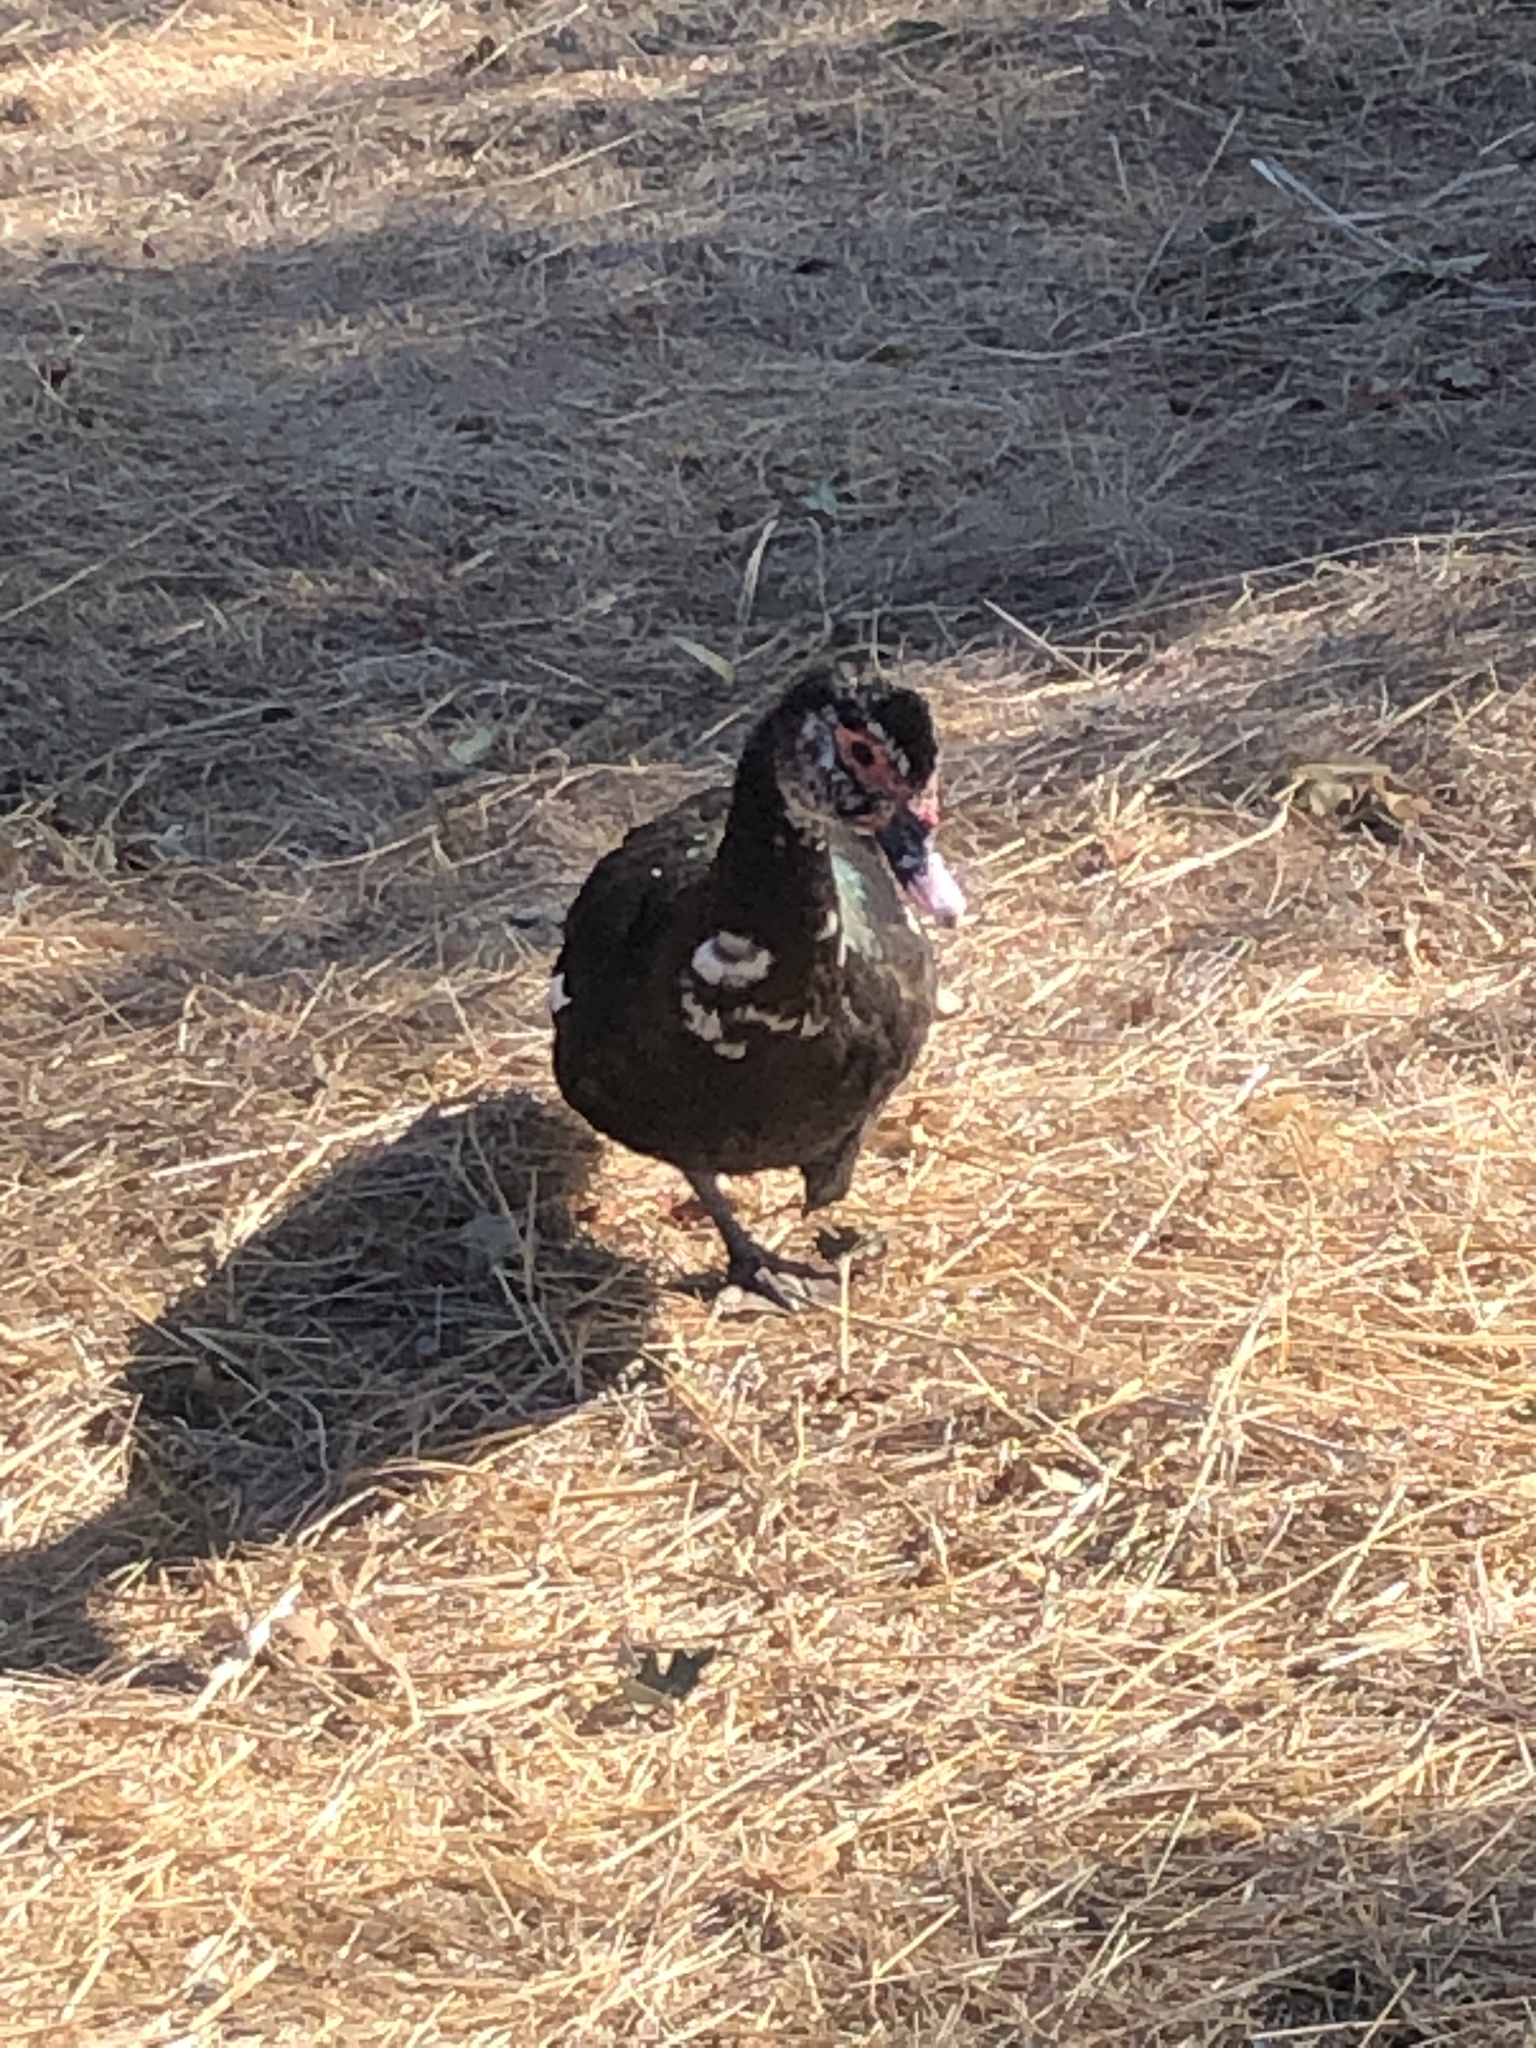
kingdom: Animalia
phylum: Chordata
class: Aves
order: Anseriformes
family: Anatidae
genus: Cairina
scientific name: Cairina moschata
